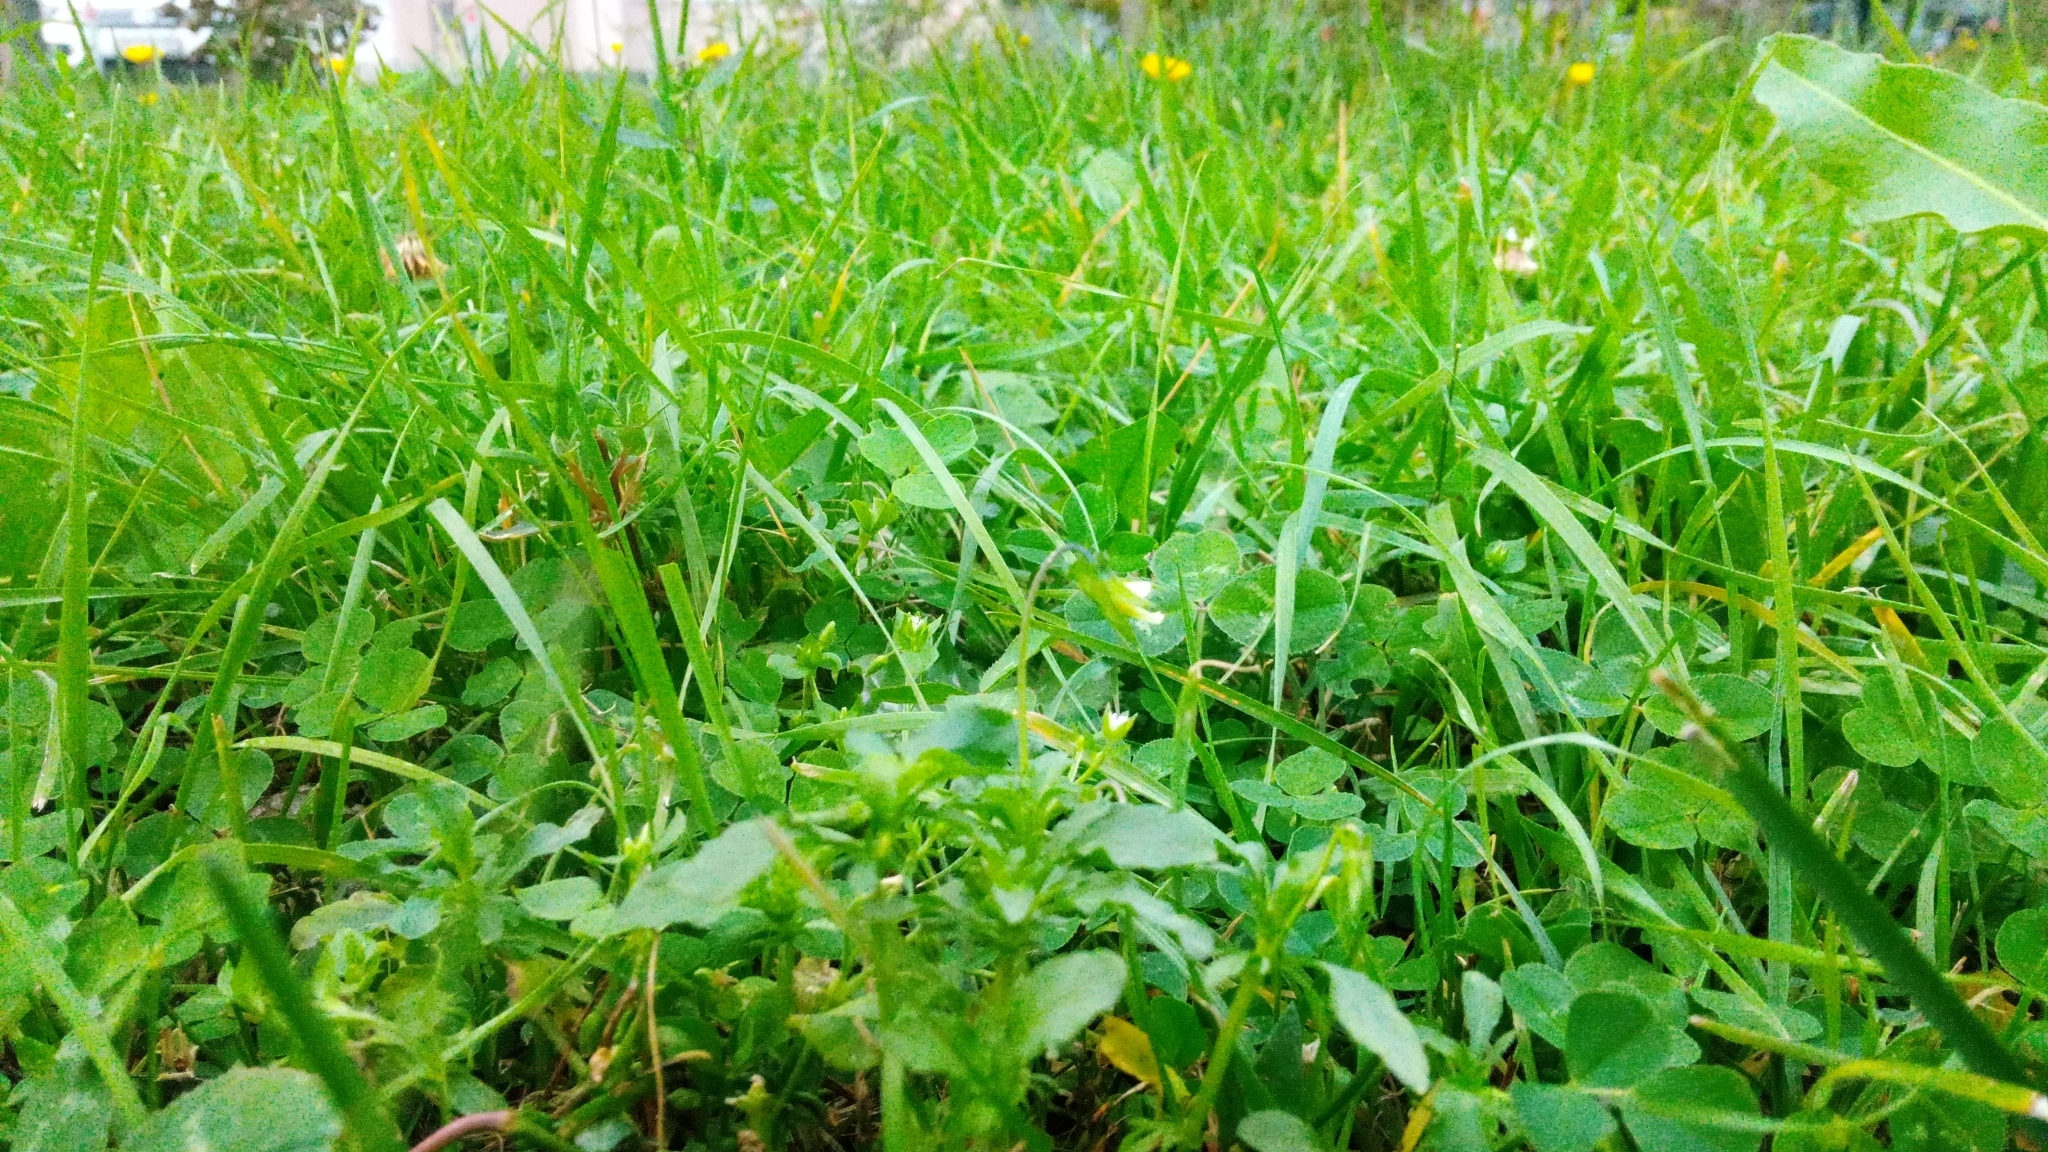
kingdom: Plantae
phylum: Tracheophyta
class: Magnoliopsida
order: Malpighiales
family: Violaceae
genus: Viola
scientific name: Viola arvensis
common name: Field pansy
